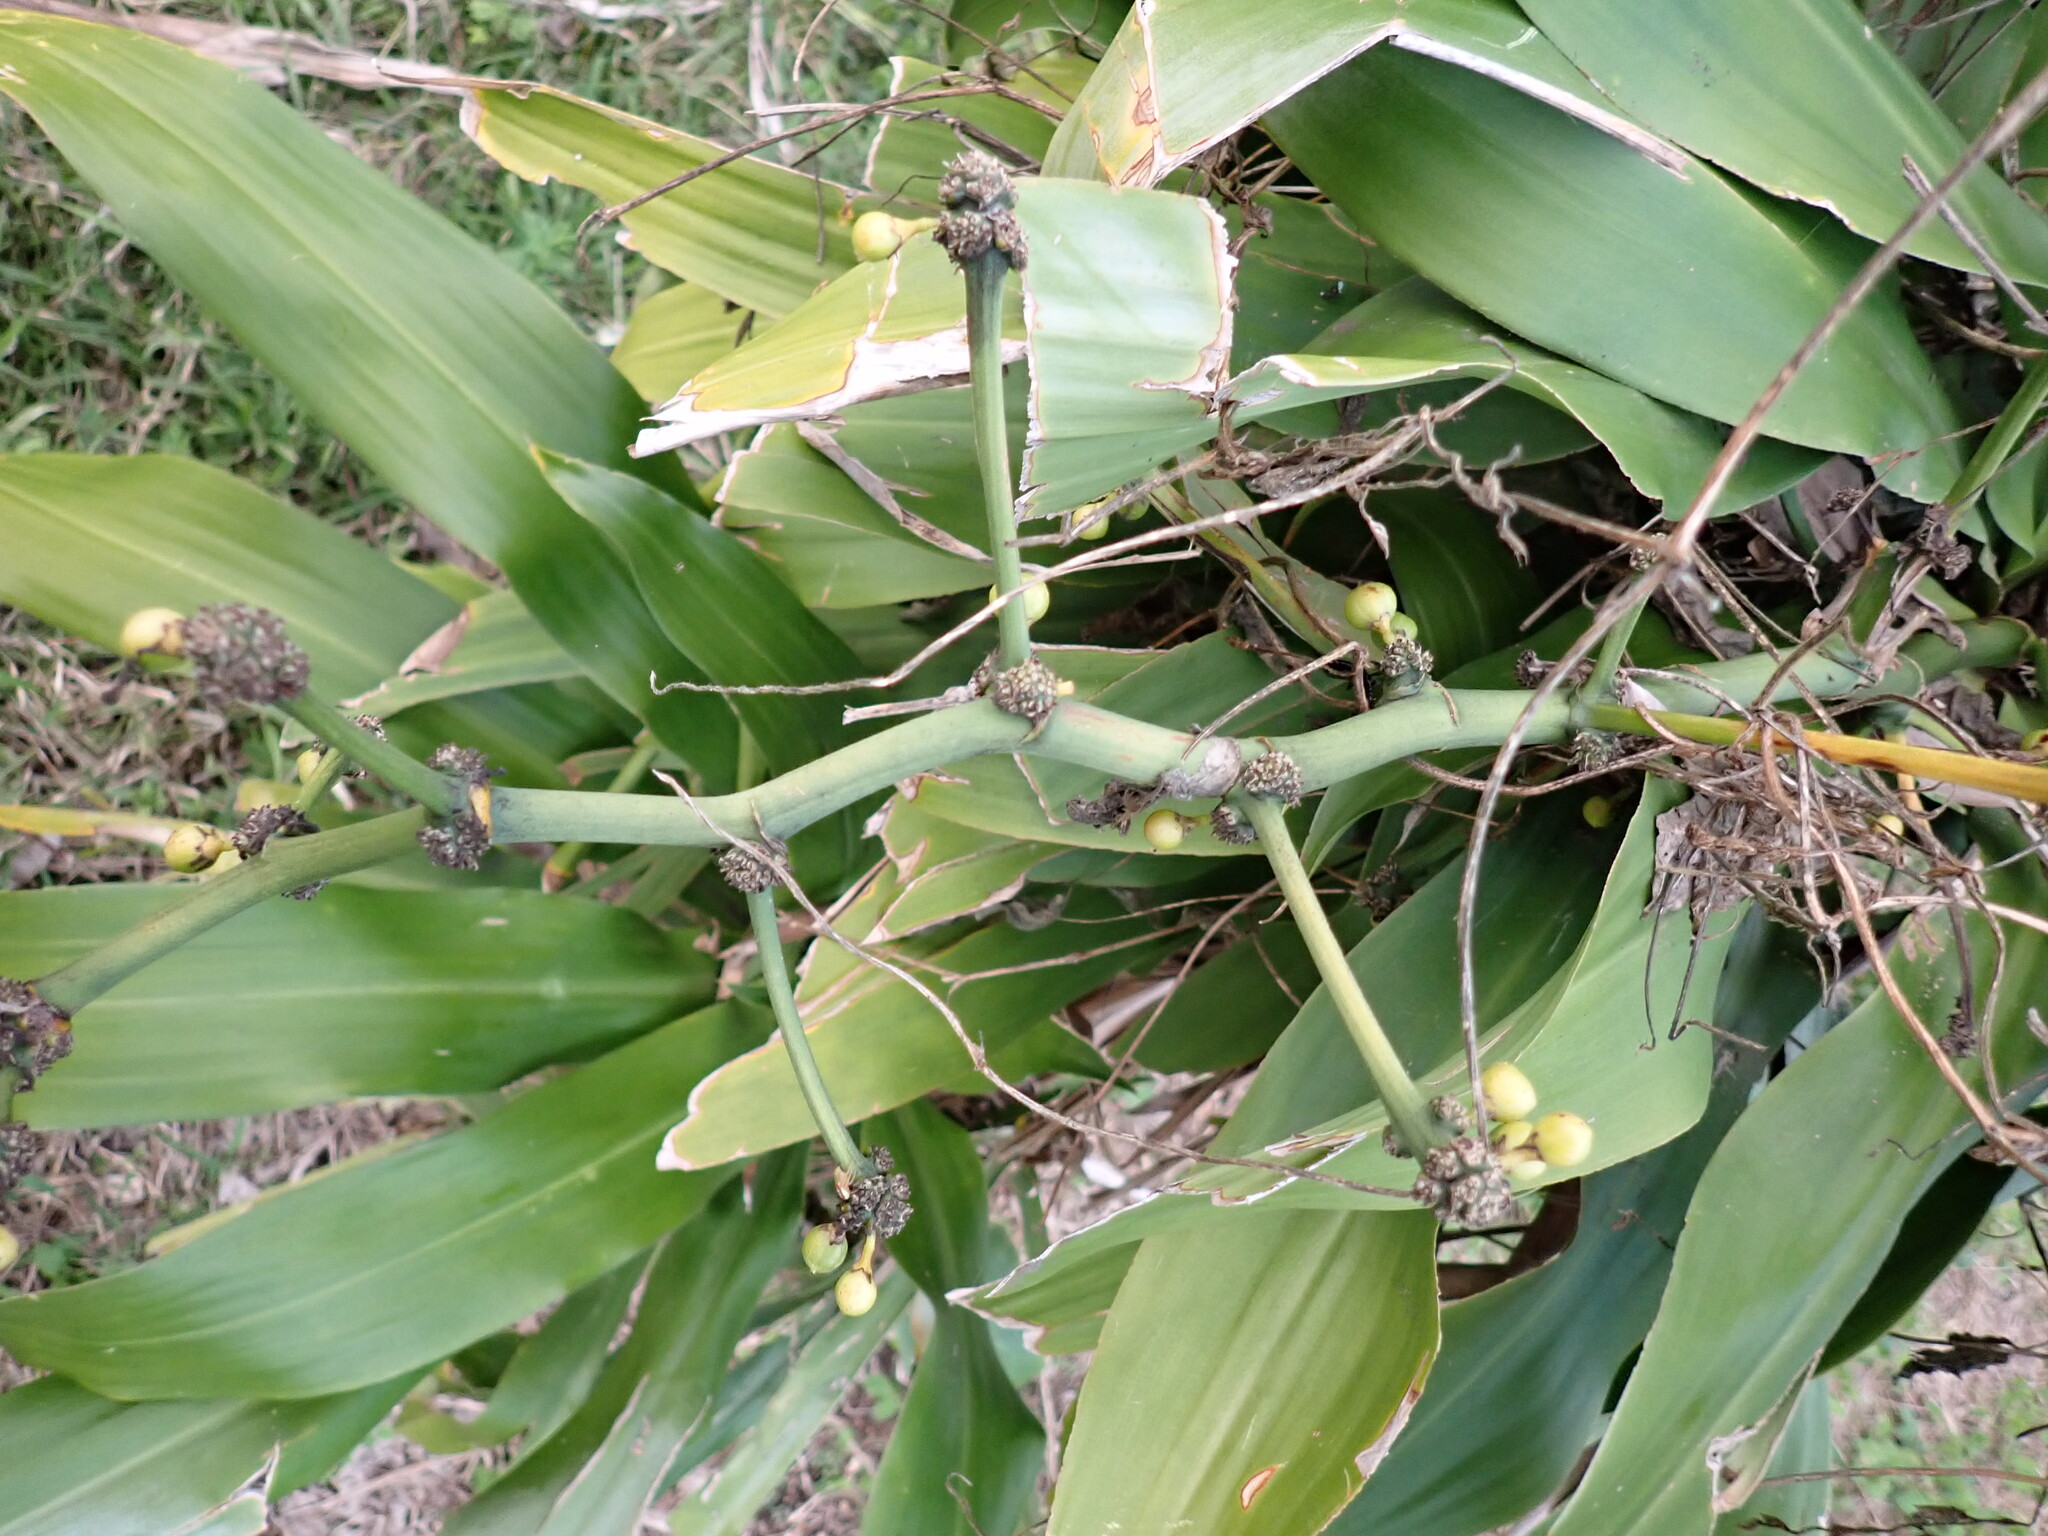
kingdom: Plantae
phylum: Tracheophyta
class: Liliopsida
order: Asparagales
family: Asparagaceae
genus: Dracaena
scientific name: Dracaena fragrans
